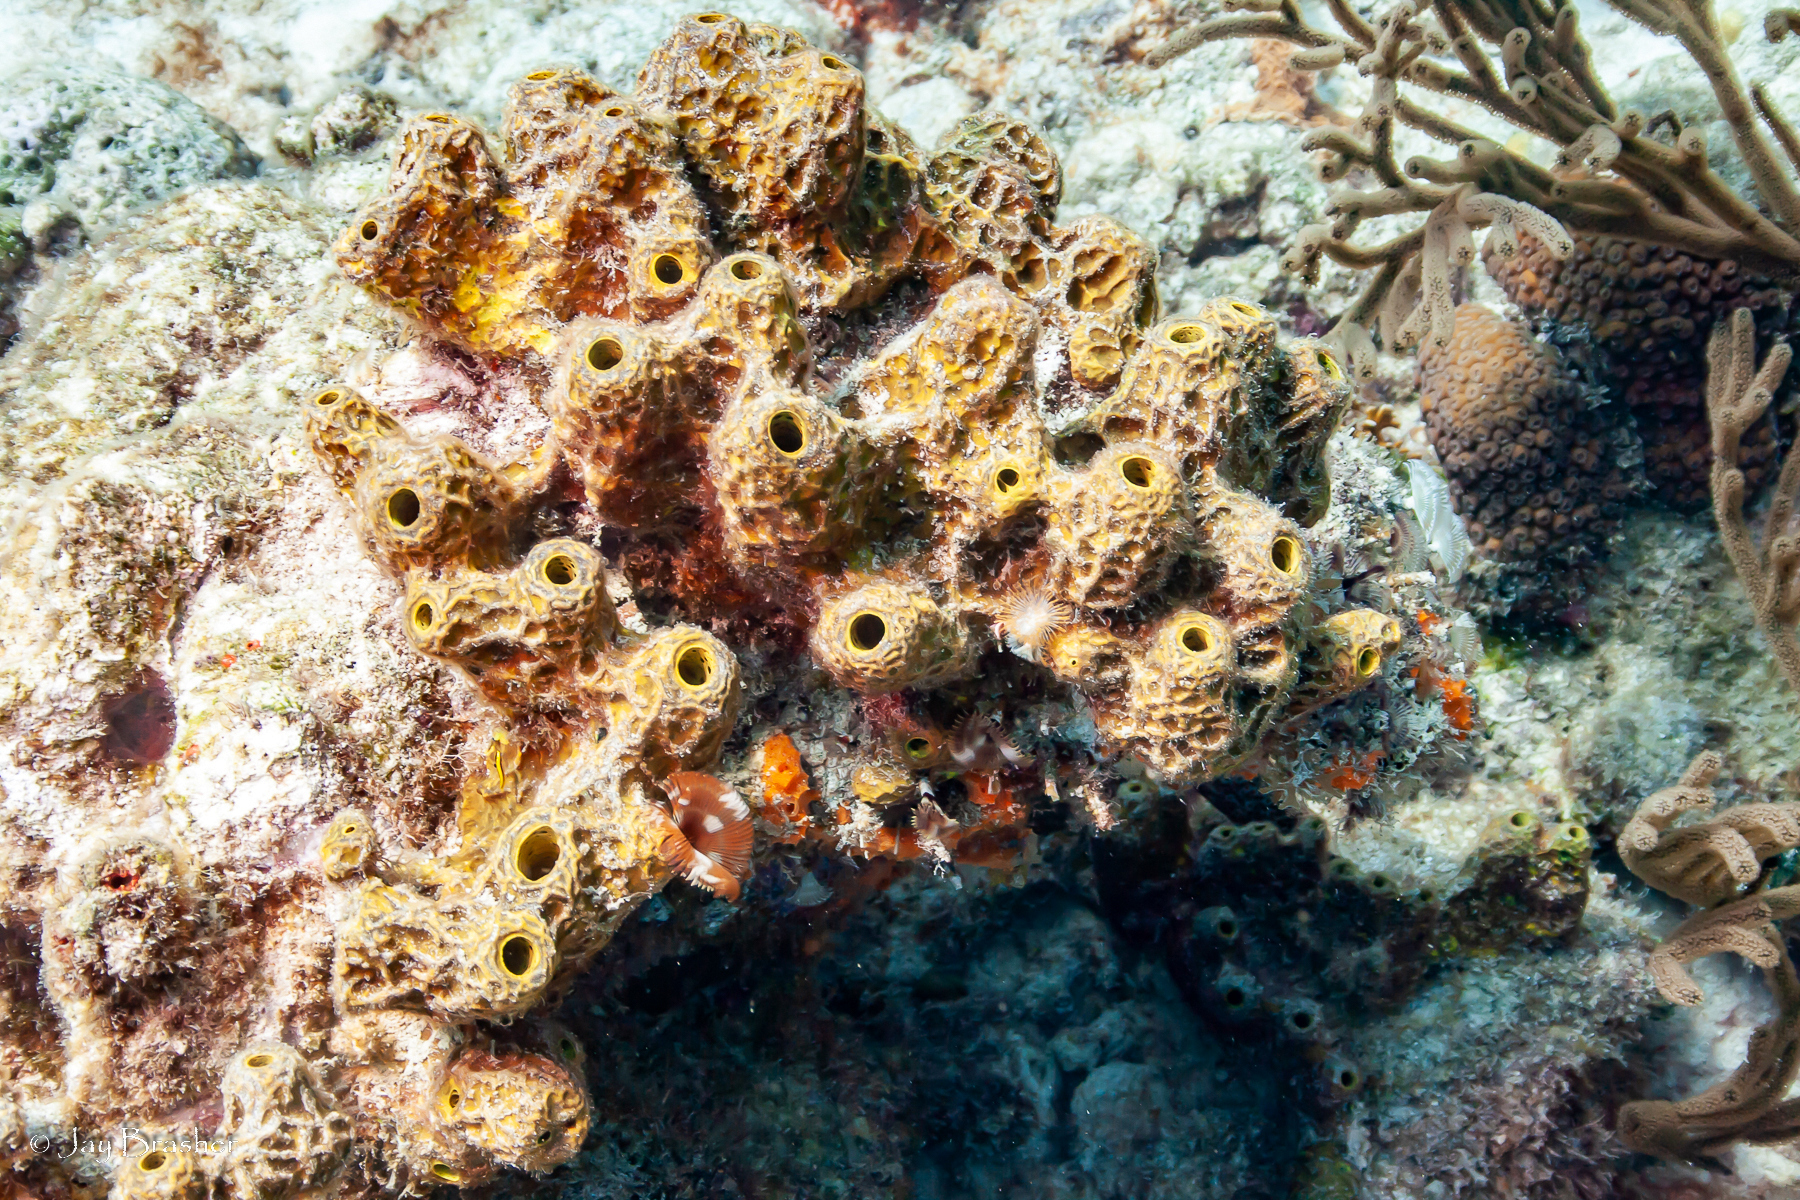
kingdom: Animalia
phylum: Porifera
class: Demospongiae
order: Verongiida
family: Aplysinidae
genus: Verongula
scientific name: Verongula rigida
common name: Pitted sponge
